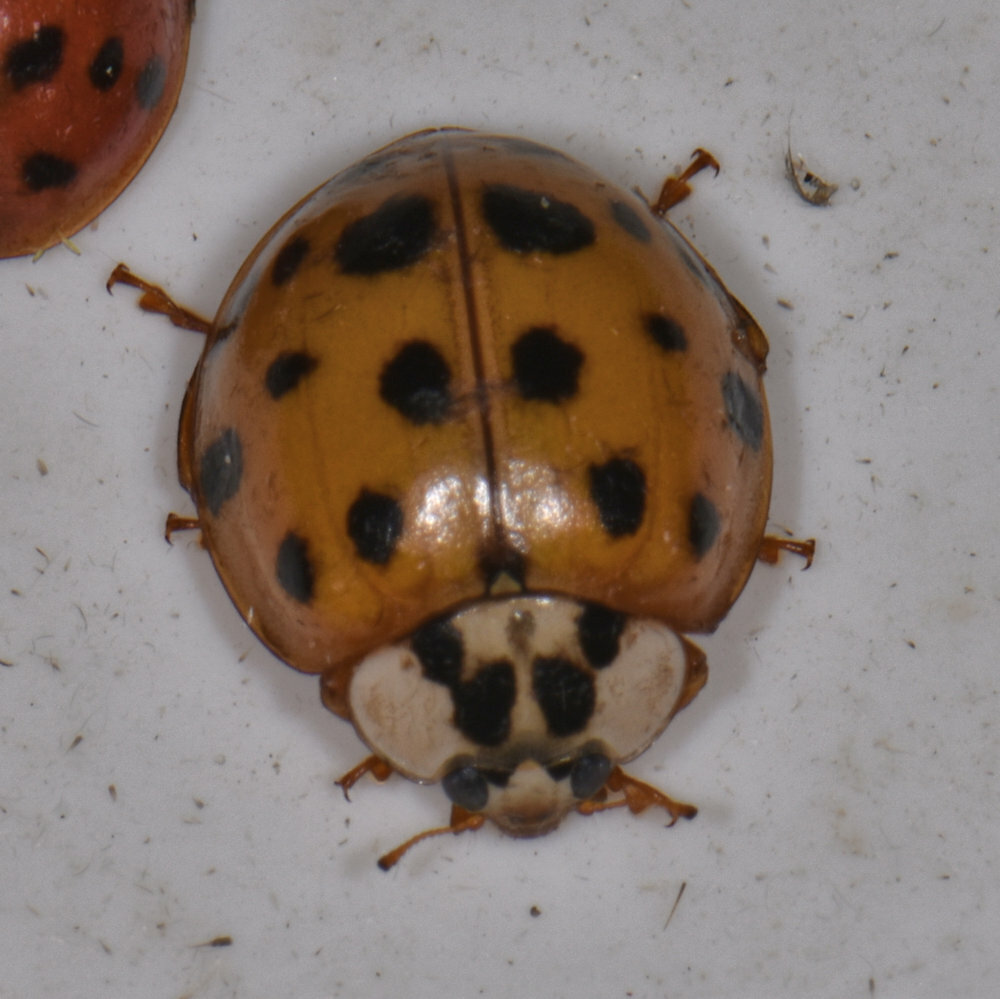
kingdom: Animalia
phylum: Arthropoda
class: Insecta
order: Coleoptera
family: Coccinellidae
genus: Harmonia
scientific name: Harmonia axyridis
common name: Harlequin ladybird
